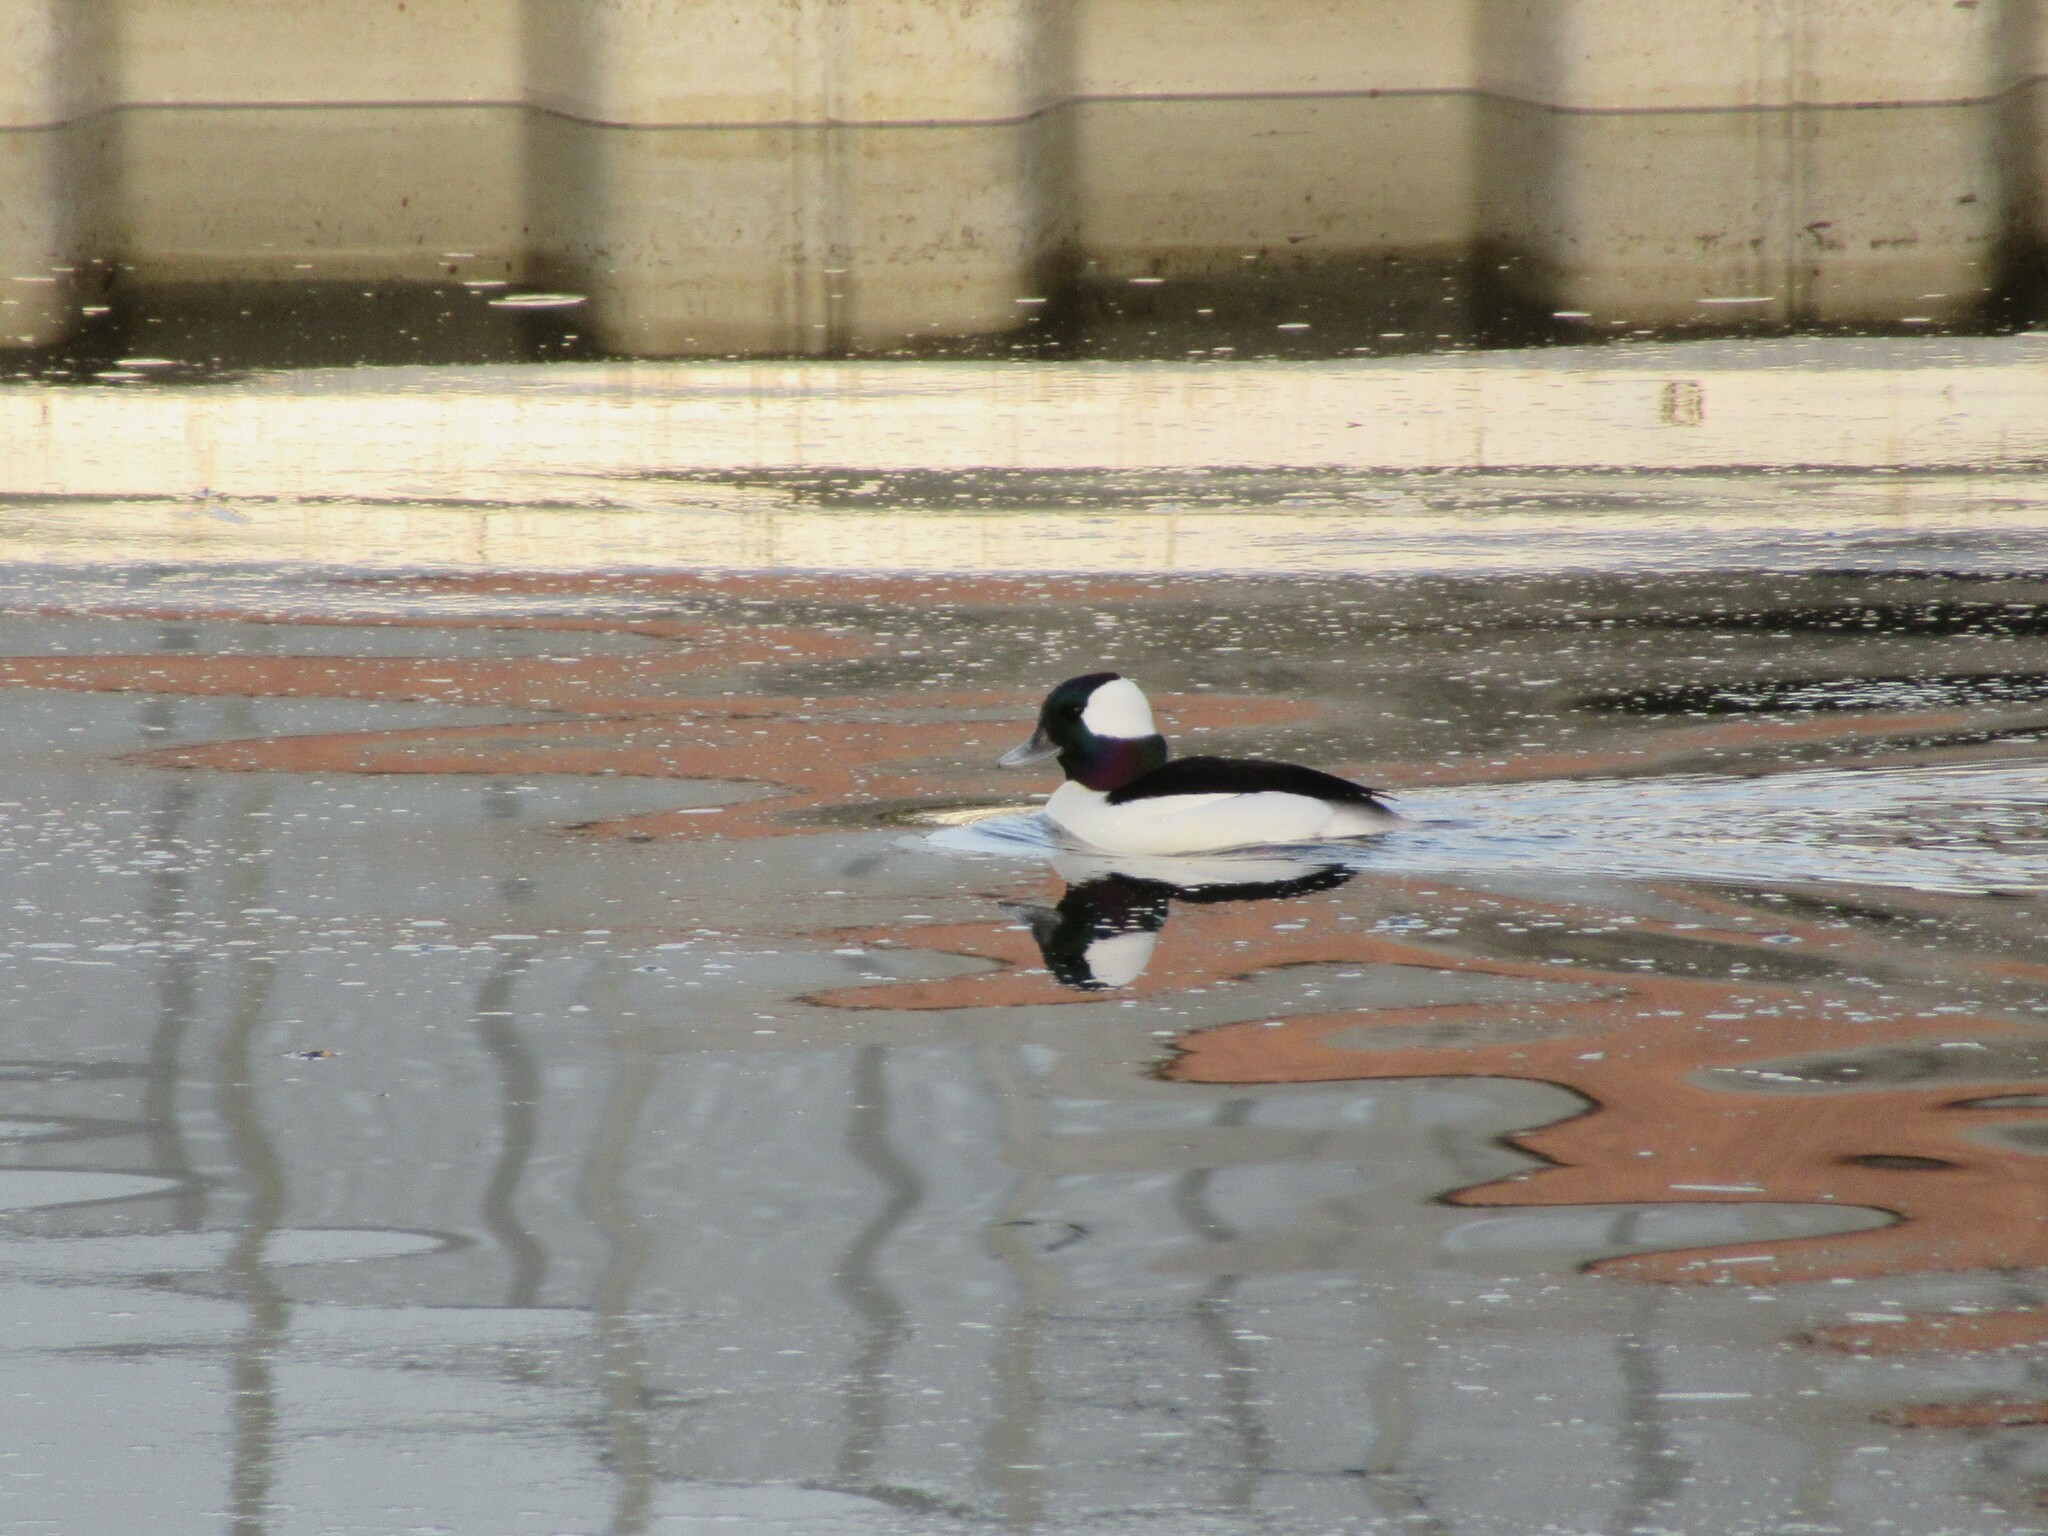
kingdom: Animalia
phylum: Chordata
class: Aves
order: Anseriformes
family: Anatidae
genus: Bucephala
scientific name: Bucephala albeola
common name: Bufflehead
